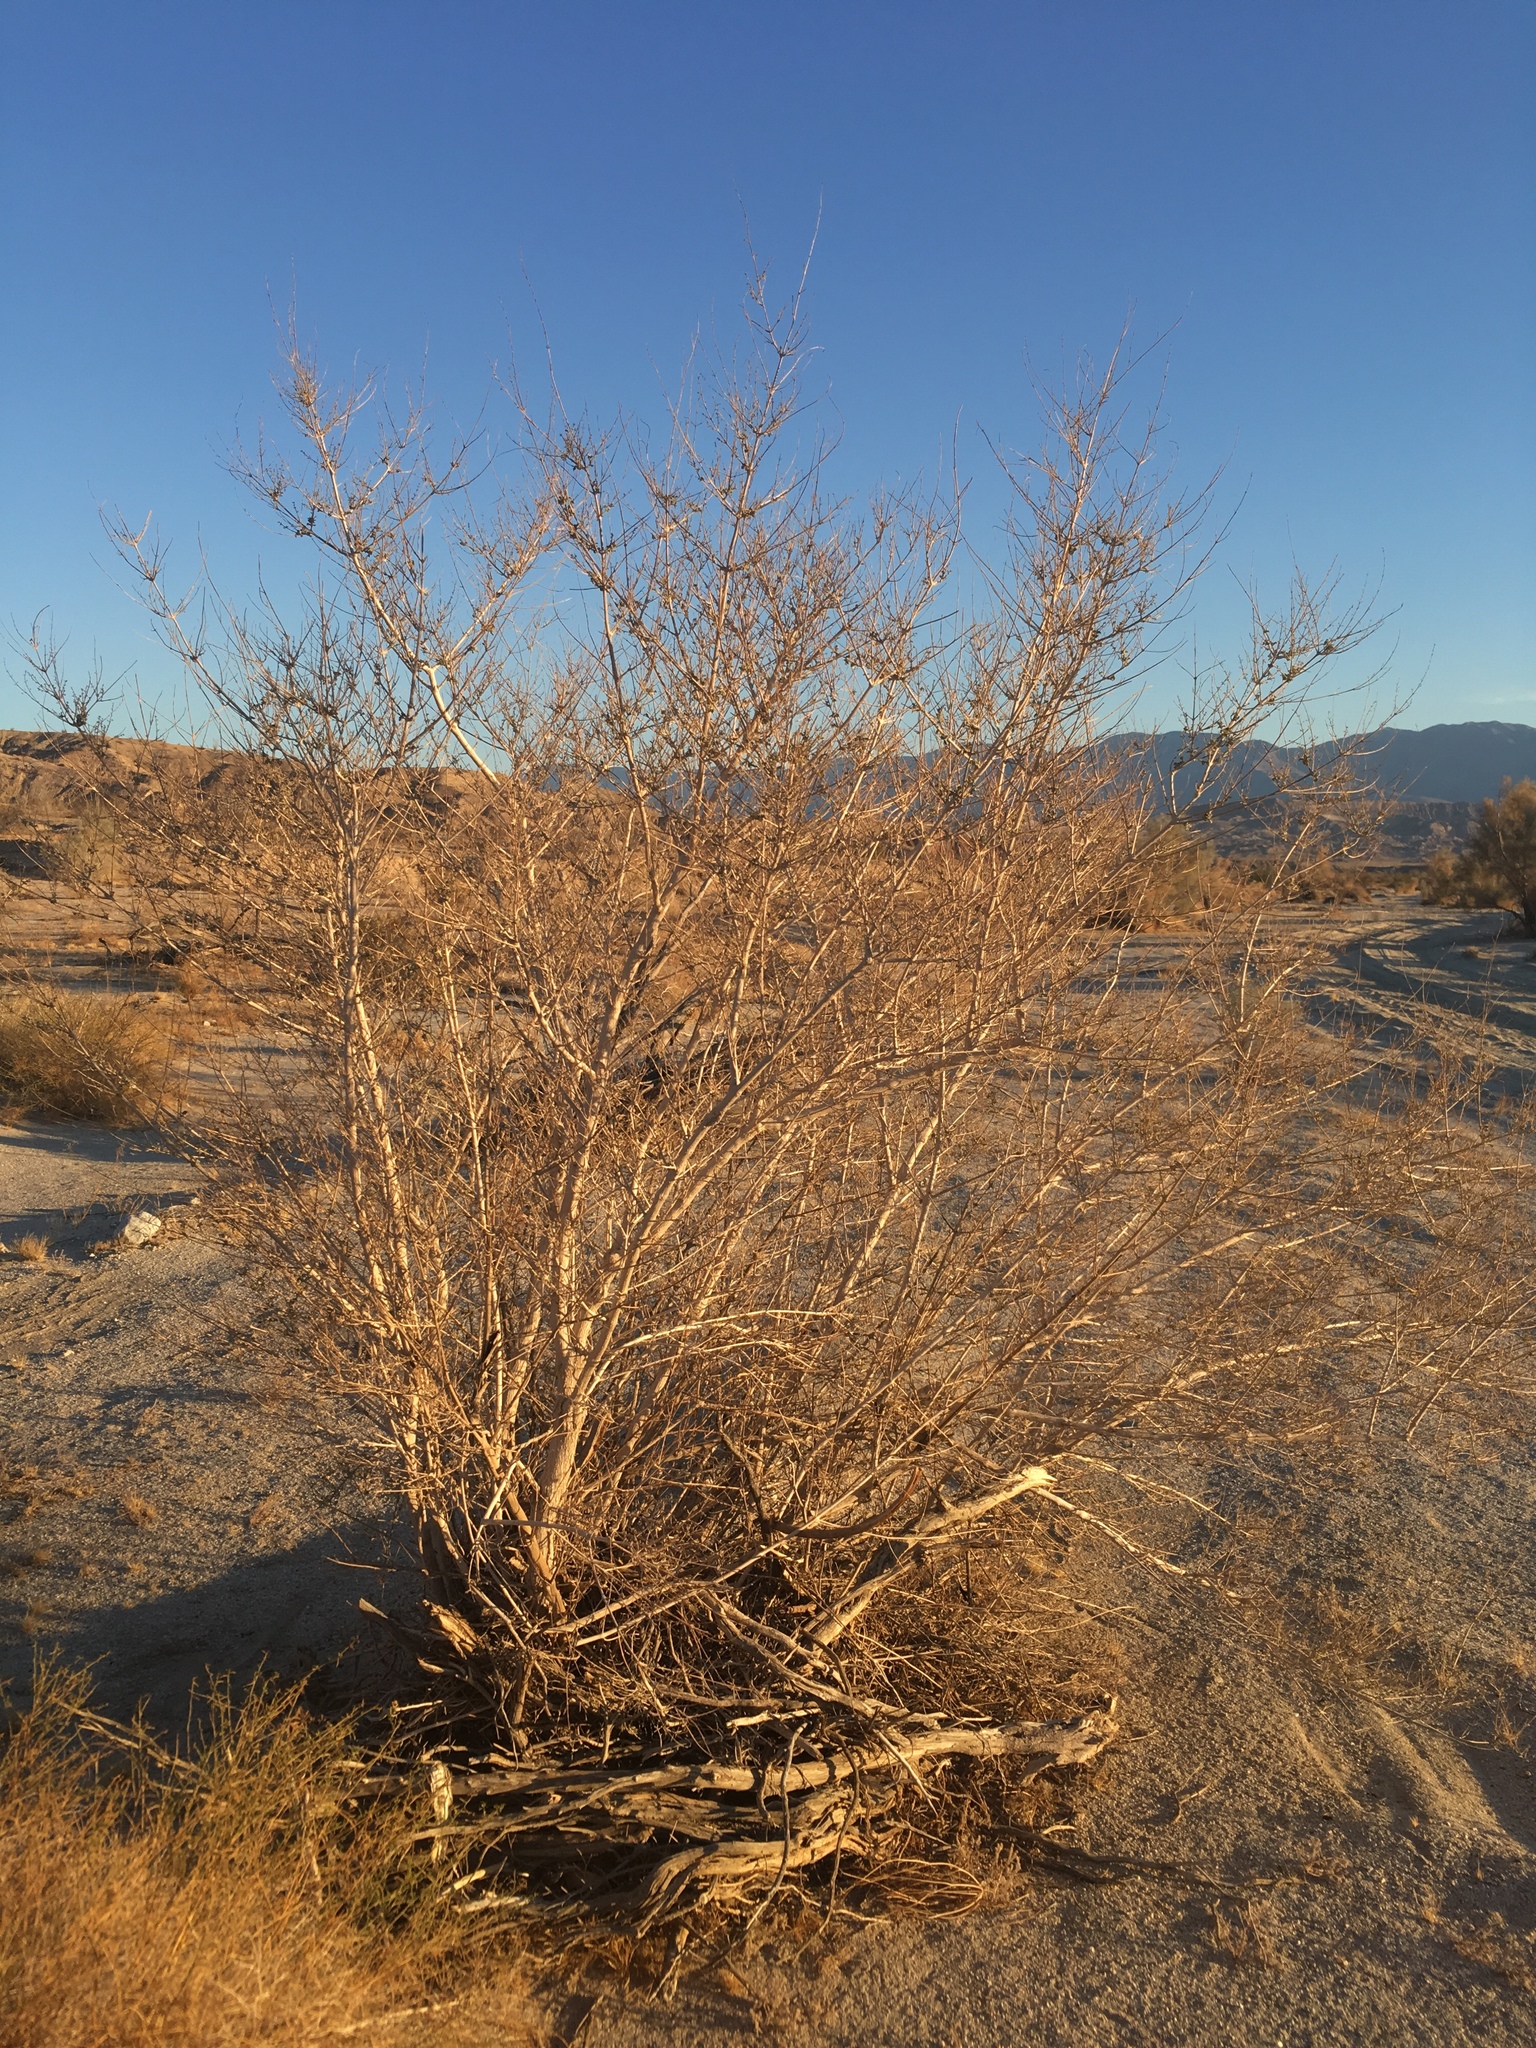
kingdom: Plantae
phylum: Tracheophyta
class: Magnoliopsida
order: Lamiales
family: Lamiaceae
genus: Condea
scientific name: Condea emoryi
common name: Chia
